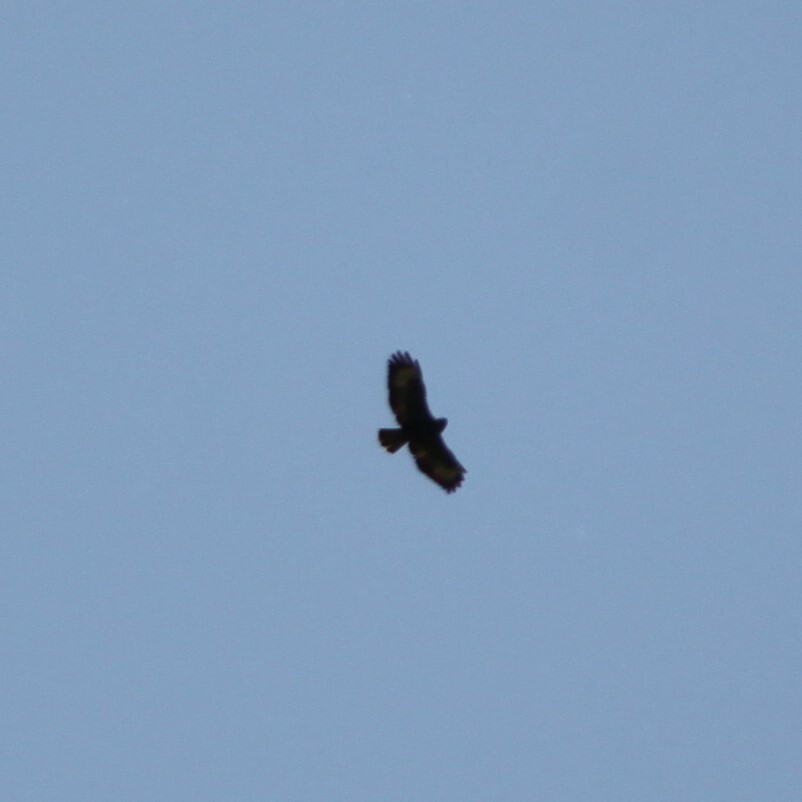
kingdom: Animalia
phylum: Chordata
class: Aves
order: Accipitriformes
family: Accipitridae
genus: Buteo
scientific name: Buteo buteo
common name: Common buzzard
